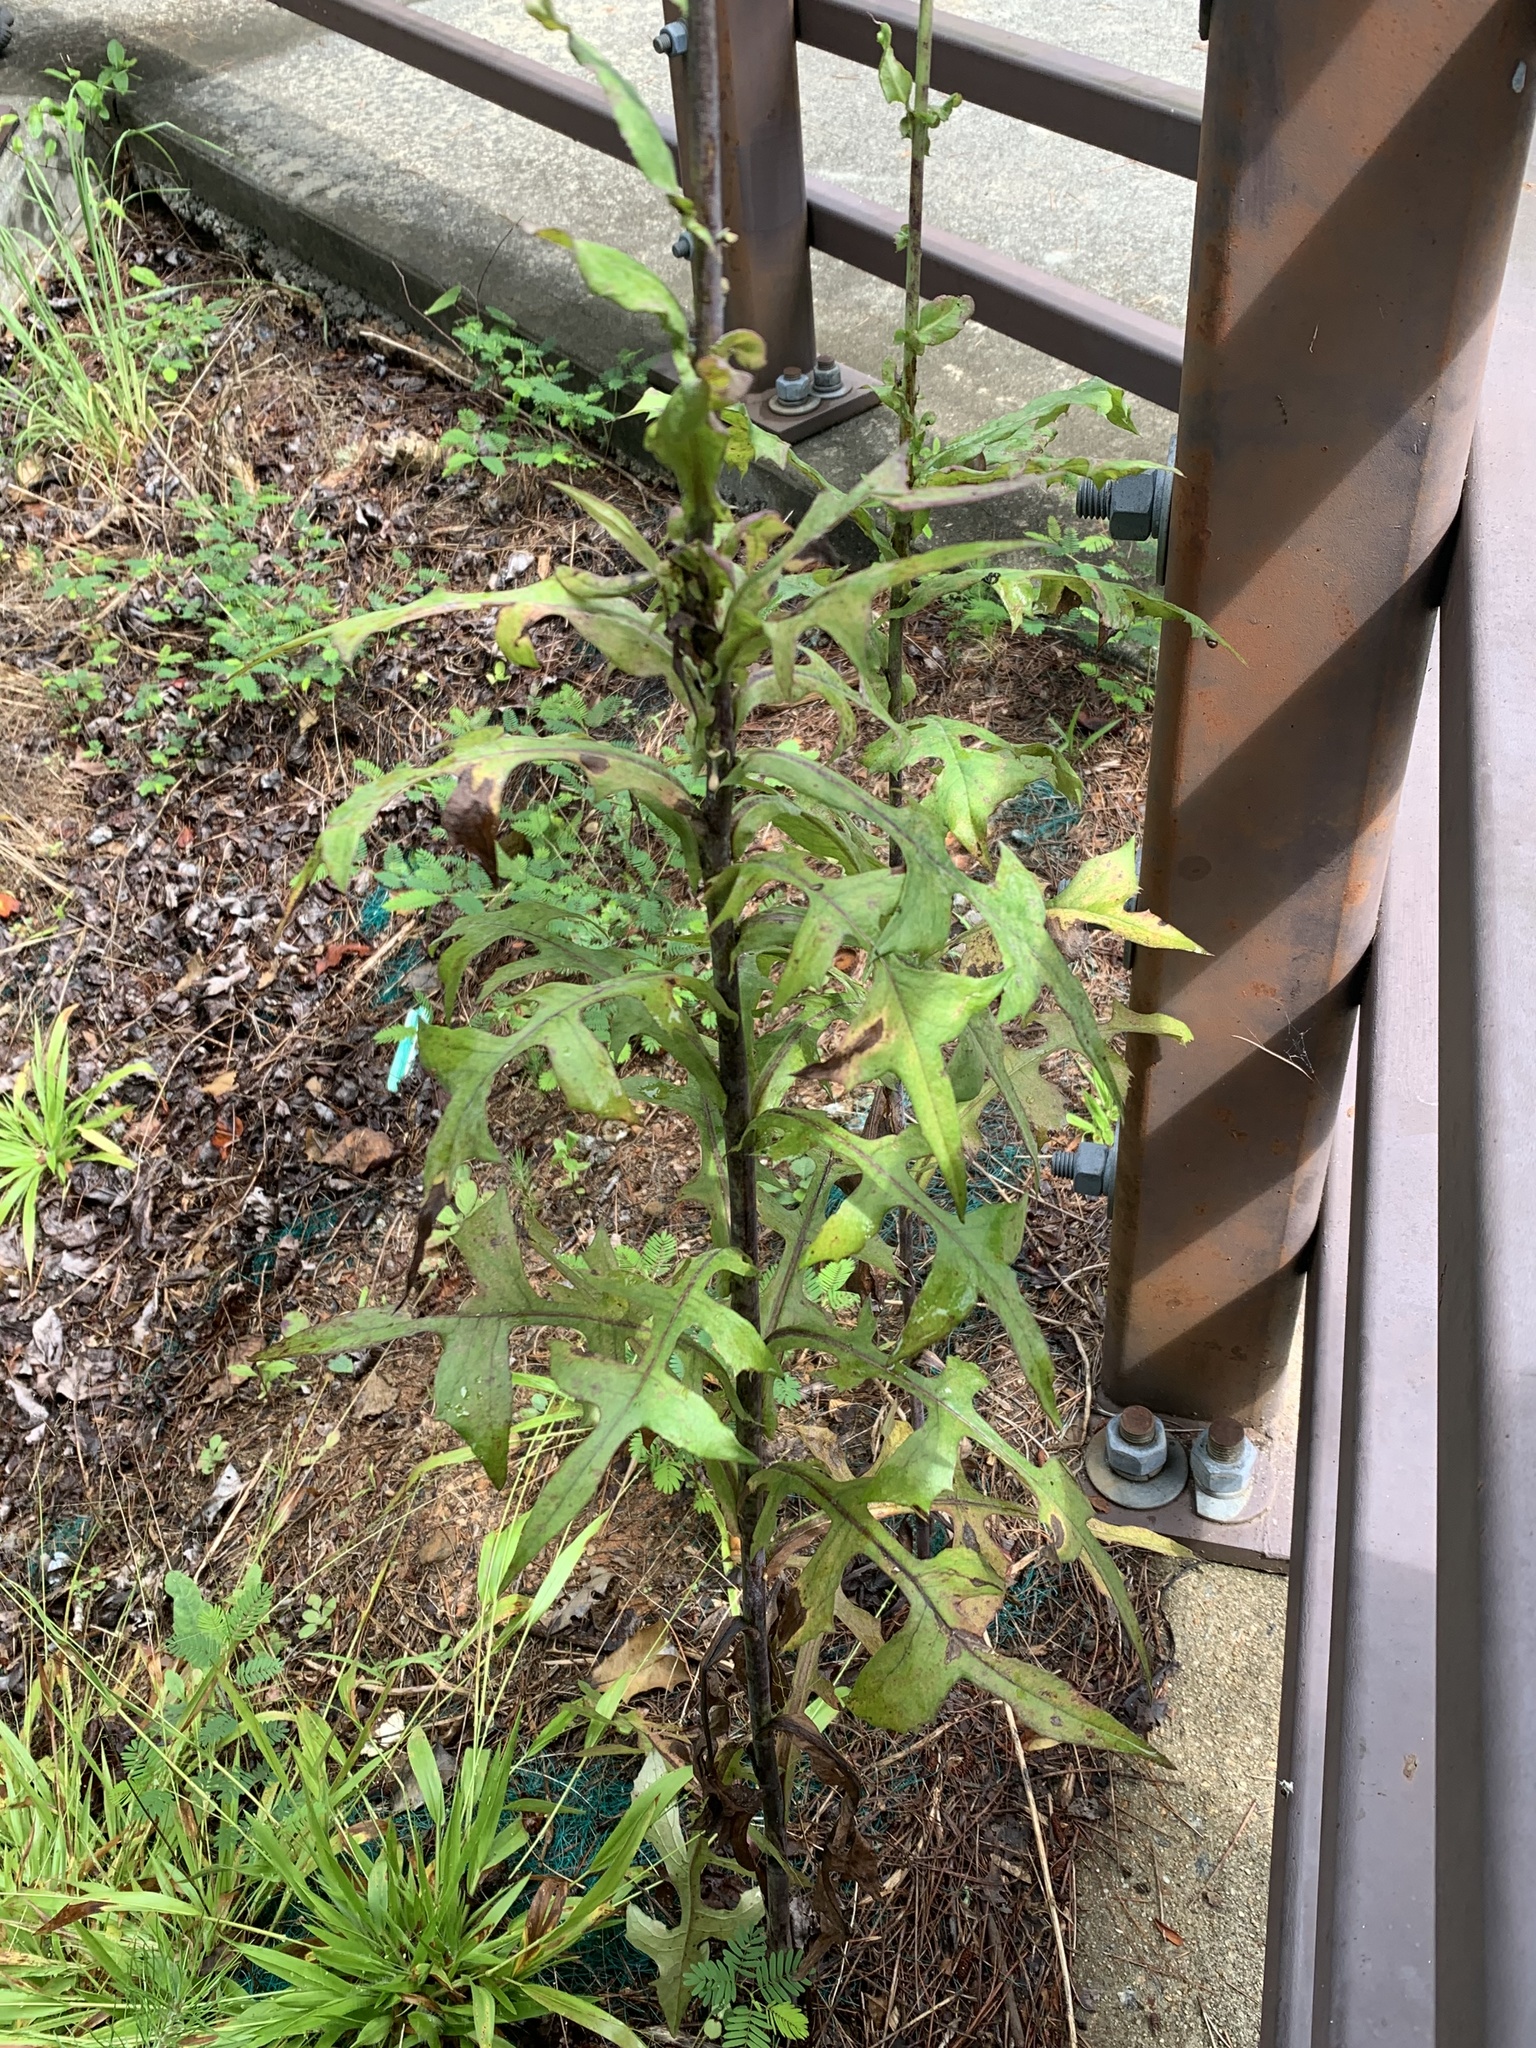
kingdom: Plantae
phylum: Tracheophyta
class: Magnoliopsida
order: Asterales
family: Asteraceae
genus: Lactuca
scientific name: Lactuca canadensis
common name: Canada lettuce
